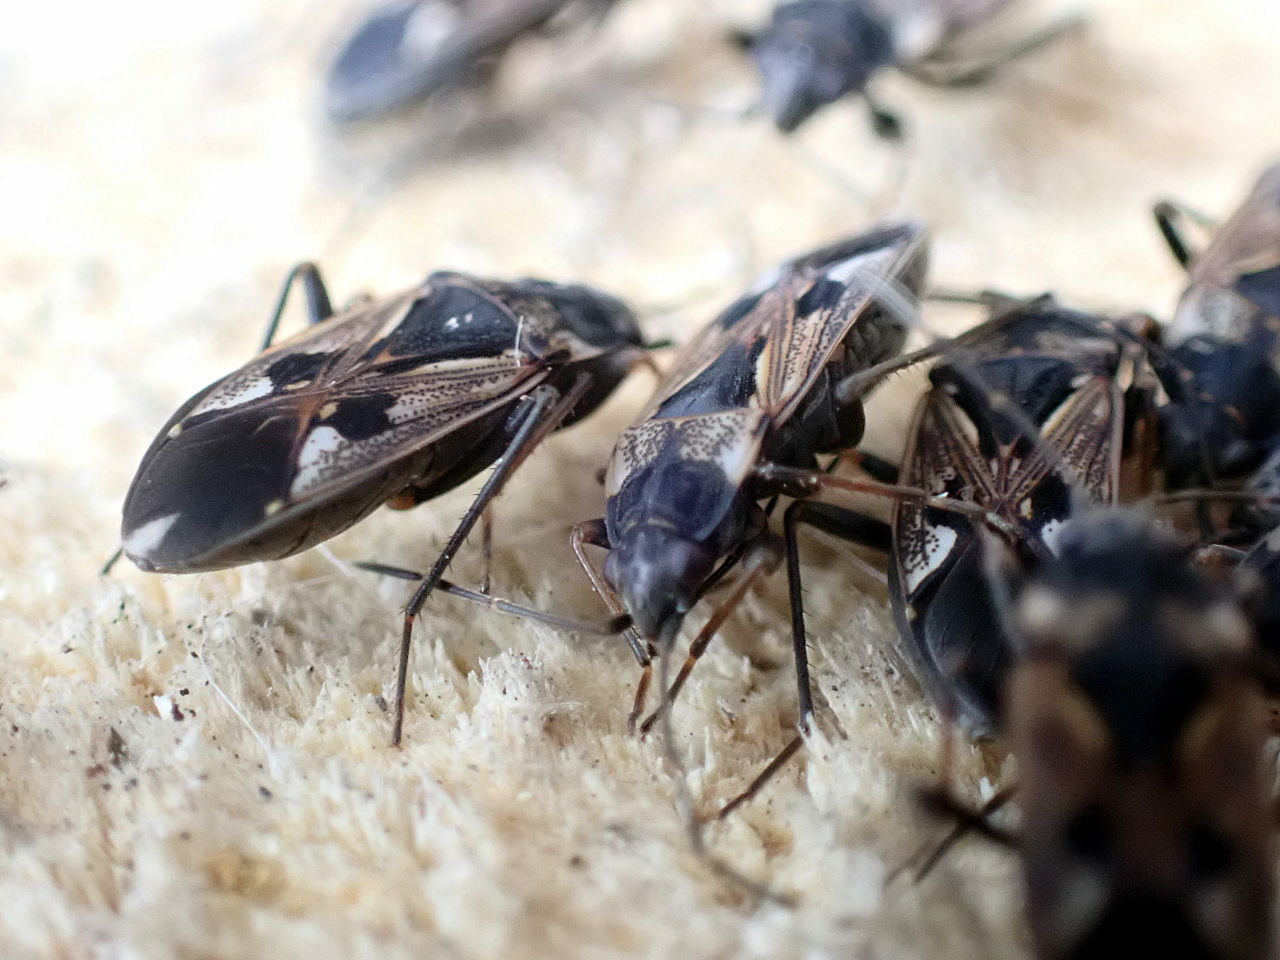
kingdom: Animalia
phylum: Arthropoda
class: Insecta
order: Hemiptera
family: Rhyparochromidae
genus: Rhyparochromus
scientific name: Rhyparochromus vulgaris
